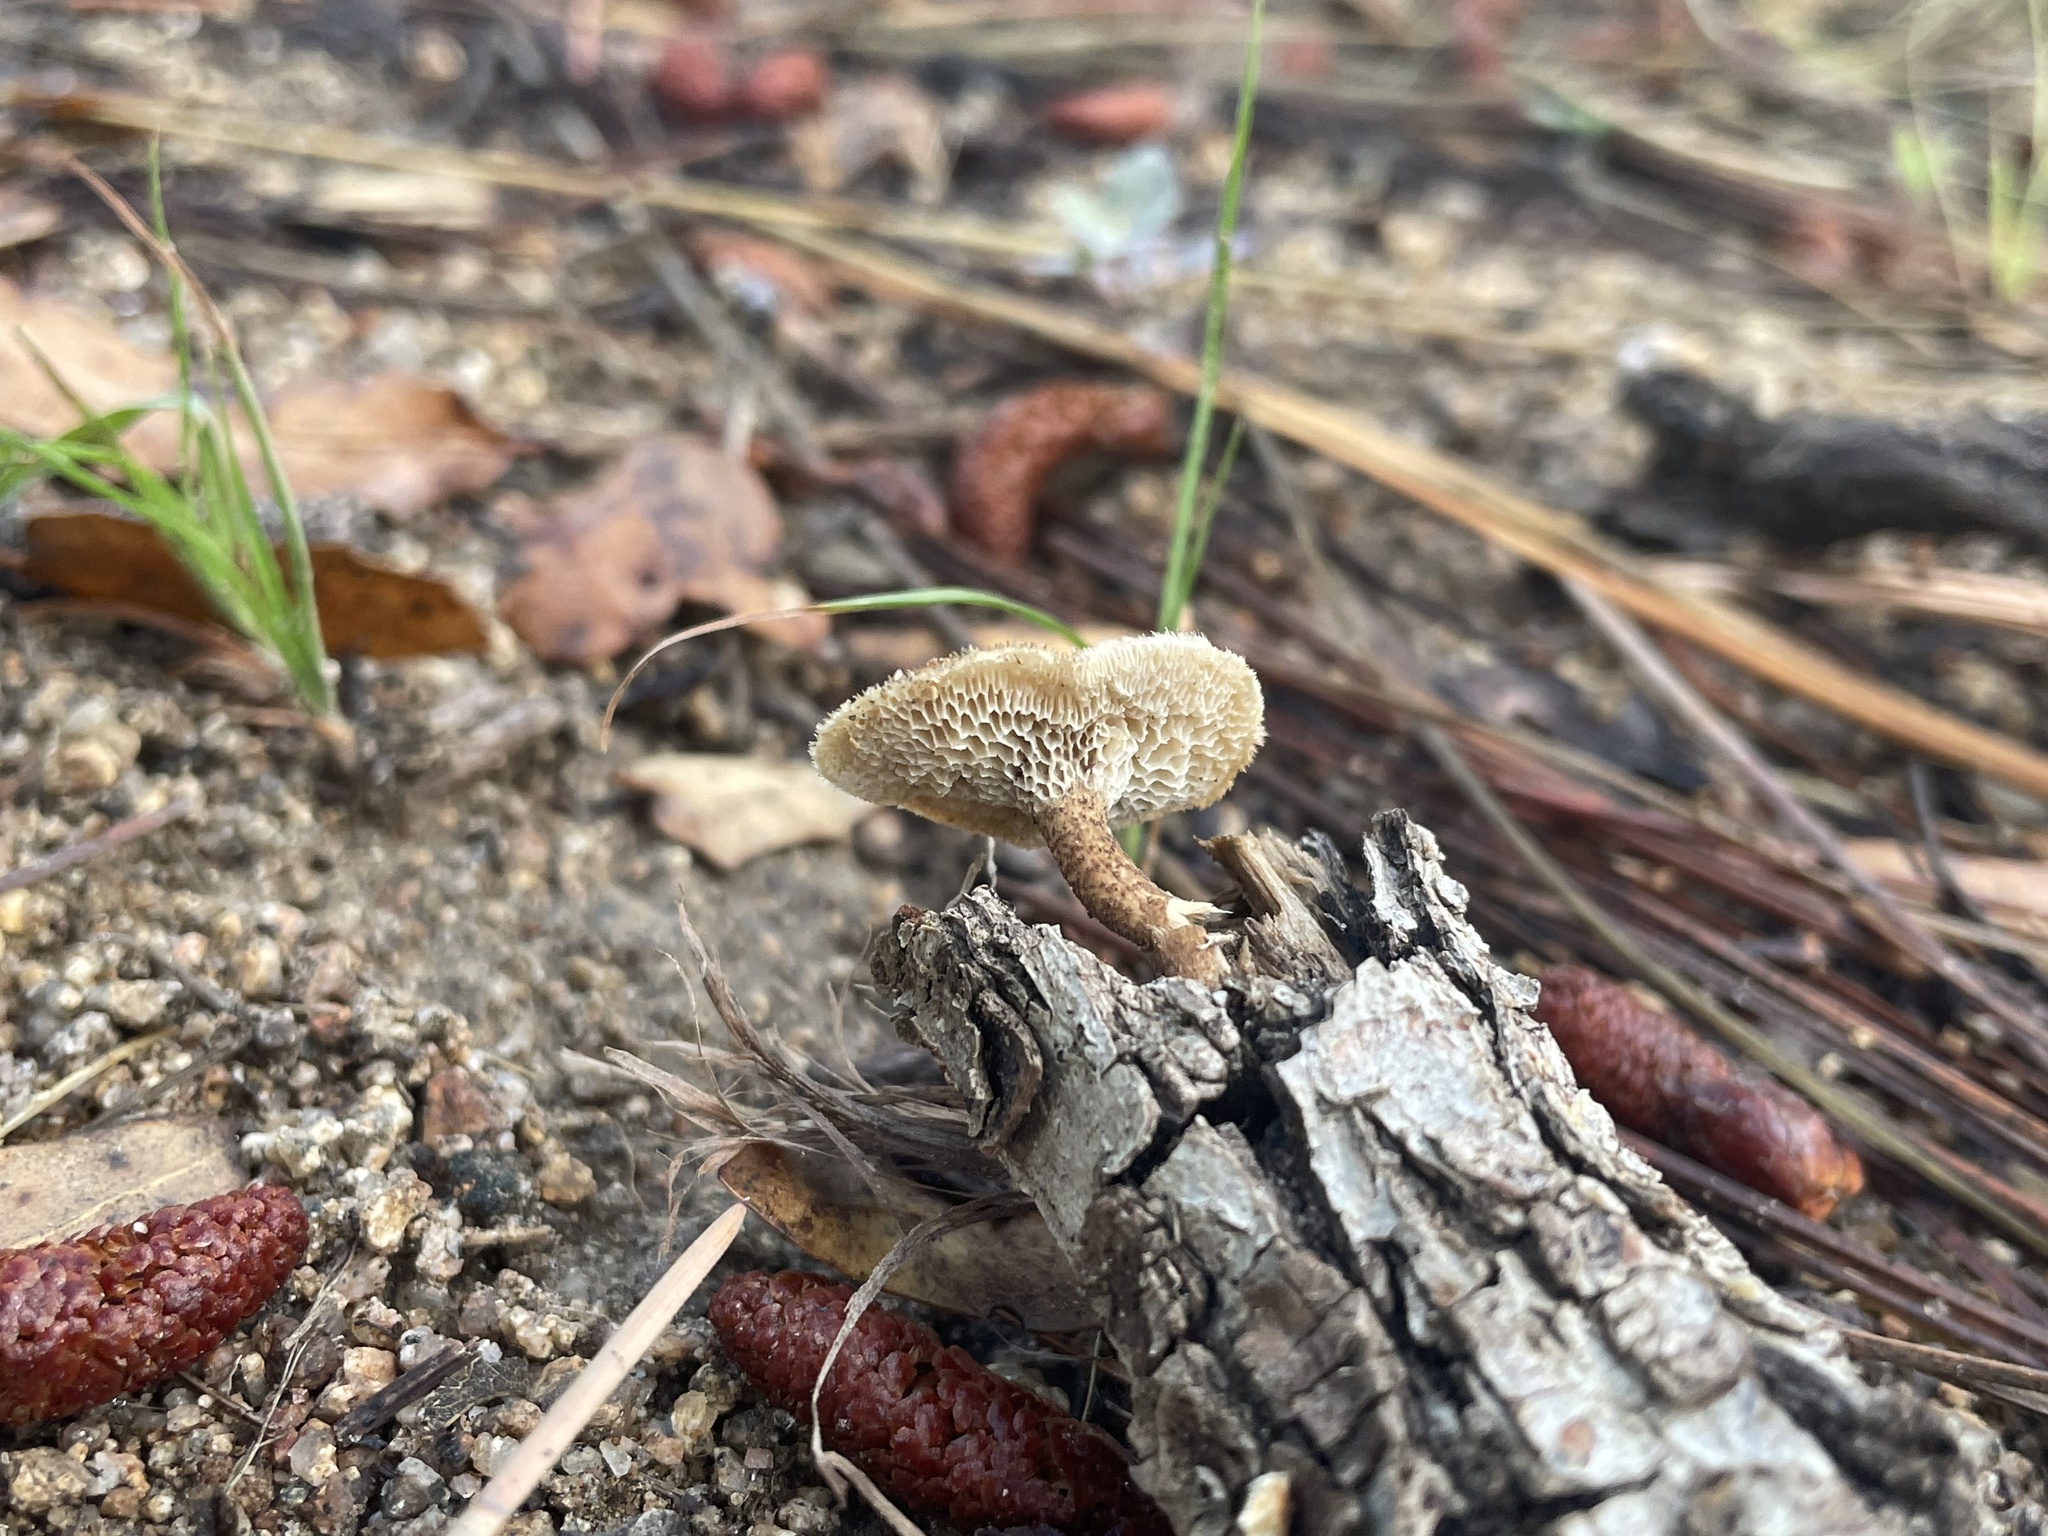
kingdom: Fungi
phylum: Basidiomycota
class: Agaricomycetes
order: Polyporales
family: Polyporaceae
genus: Lentinus
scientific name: Lentinus arcularius
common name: Spring polypore
